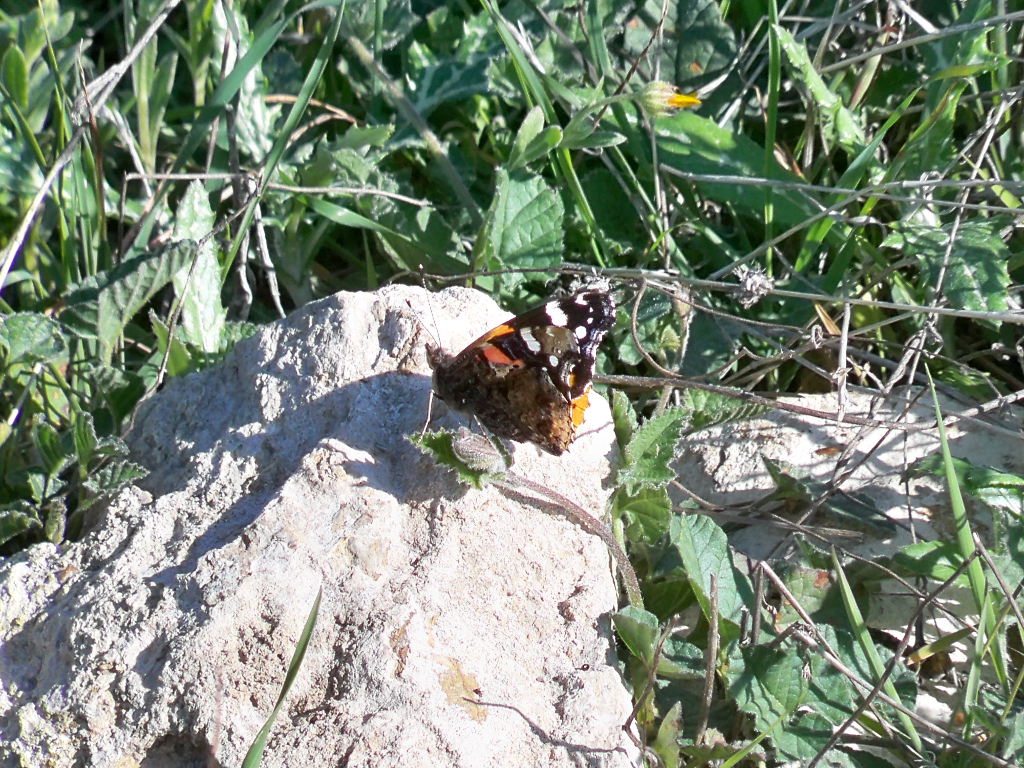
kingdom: Animalia
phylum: Arthropoda
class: Insecta
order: Lepidoptera
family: Nymphalidae
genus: Vanessa
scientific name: Vanessa atalanta
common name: Red admiral
